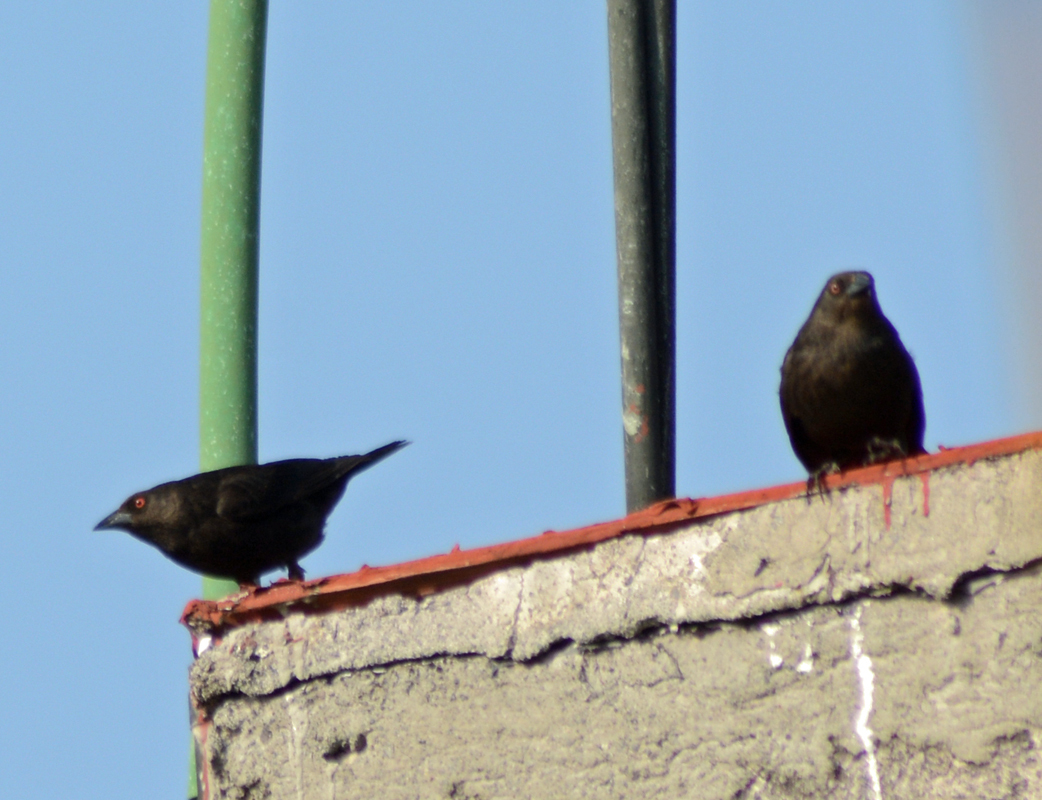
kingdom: Animalia
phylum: Chordata
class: Aves
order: Passeriformes
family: Icteridae
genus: Molothrus
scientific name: Molothrus aeneus
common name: Bronzed cowbird
